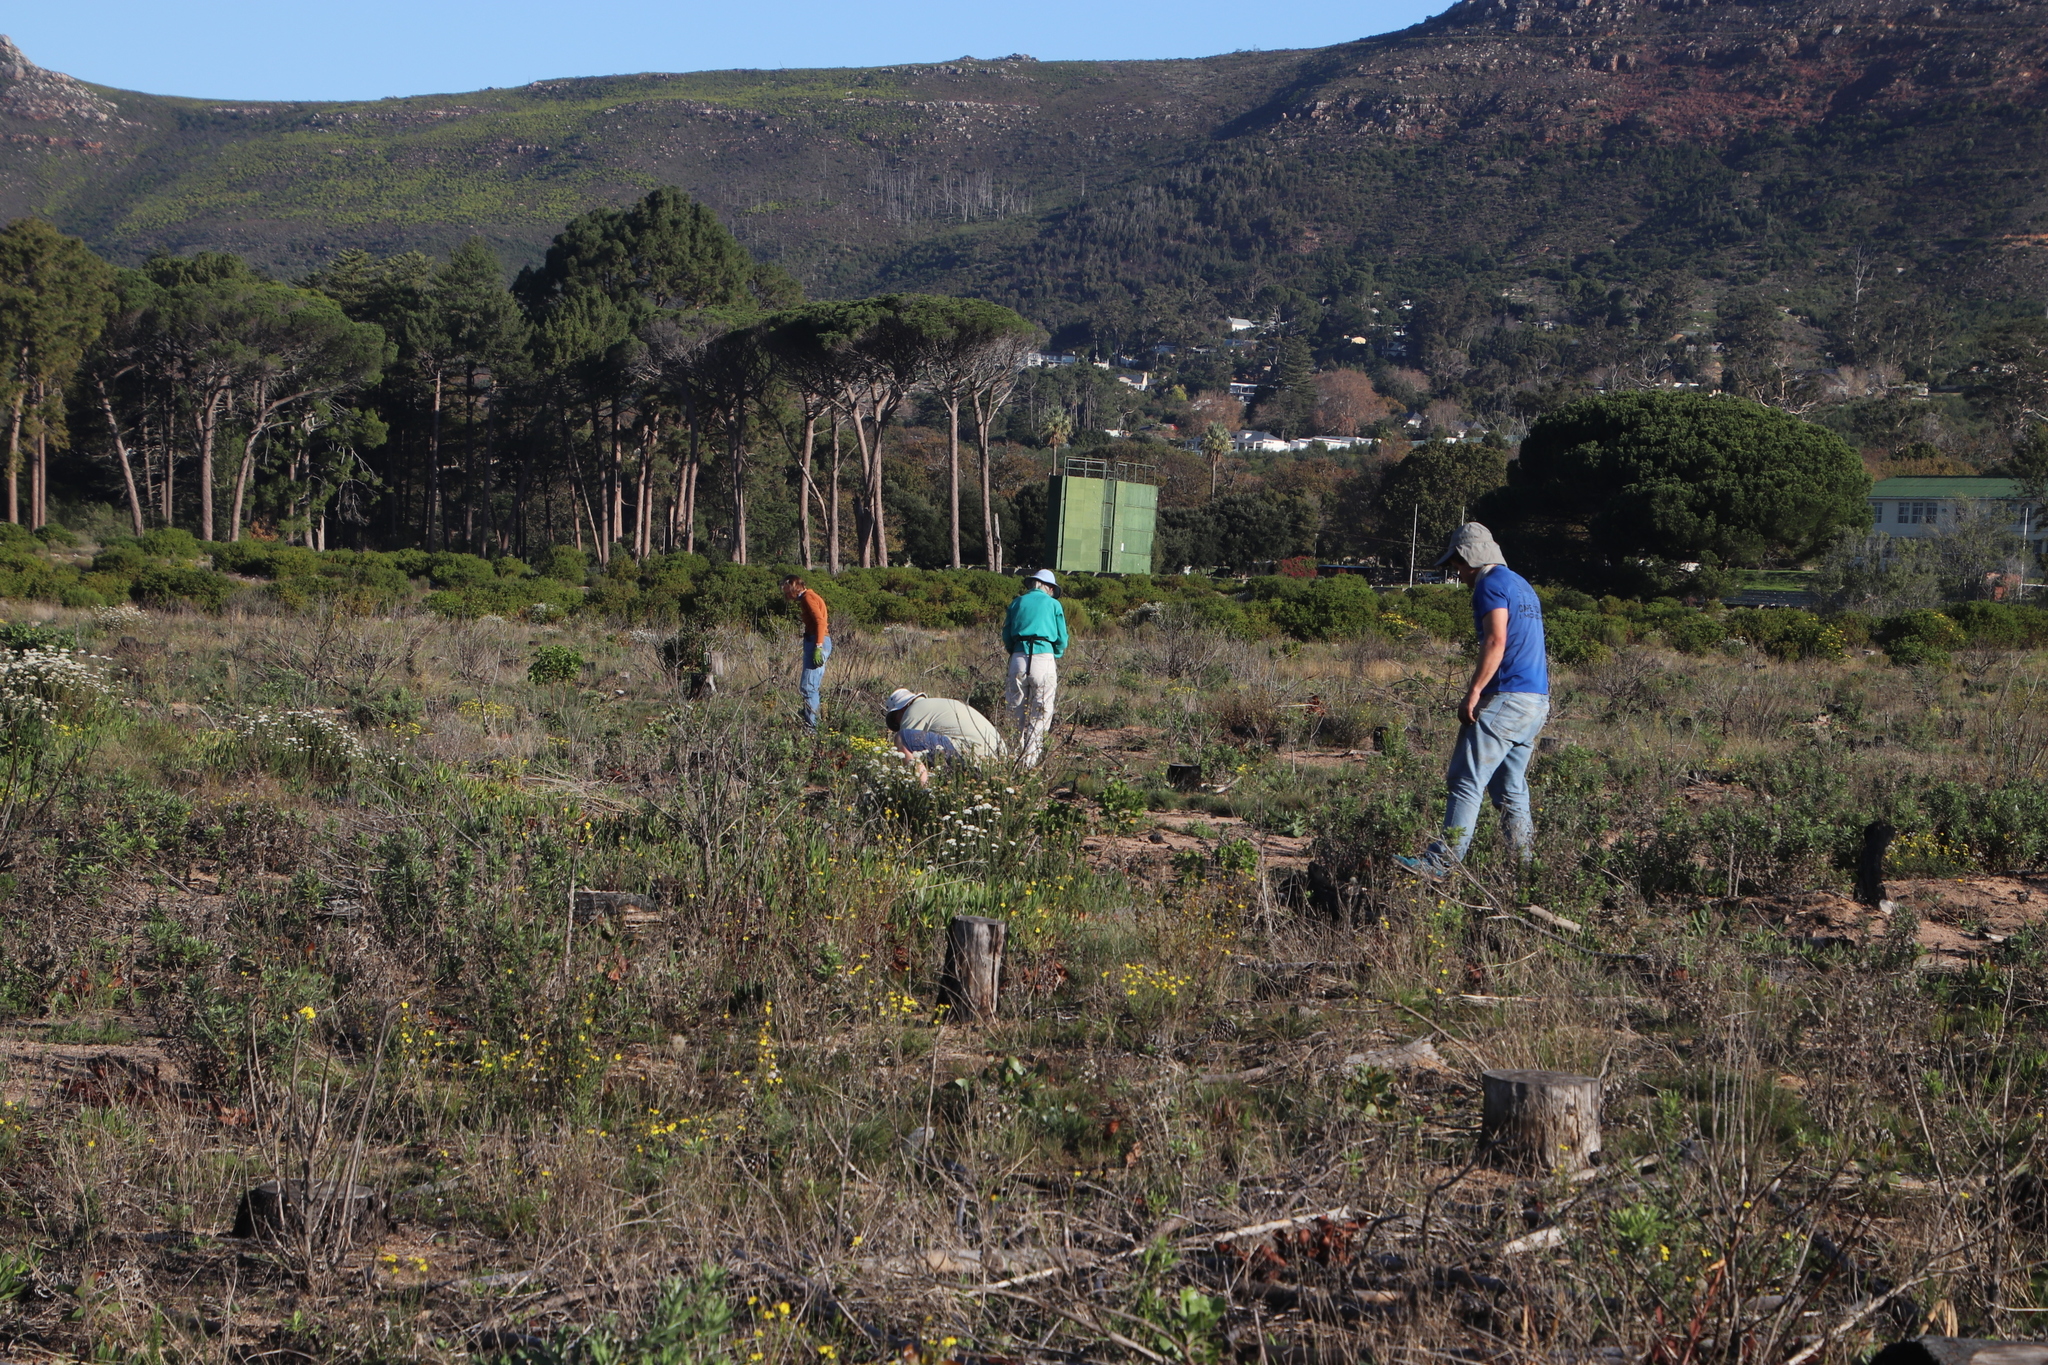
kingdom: Plantae
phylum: Tracheophyta
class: Magnoliopsida
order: Asterales
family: Asteraceae
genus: Senecio
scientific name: Senecio burchellii
